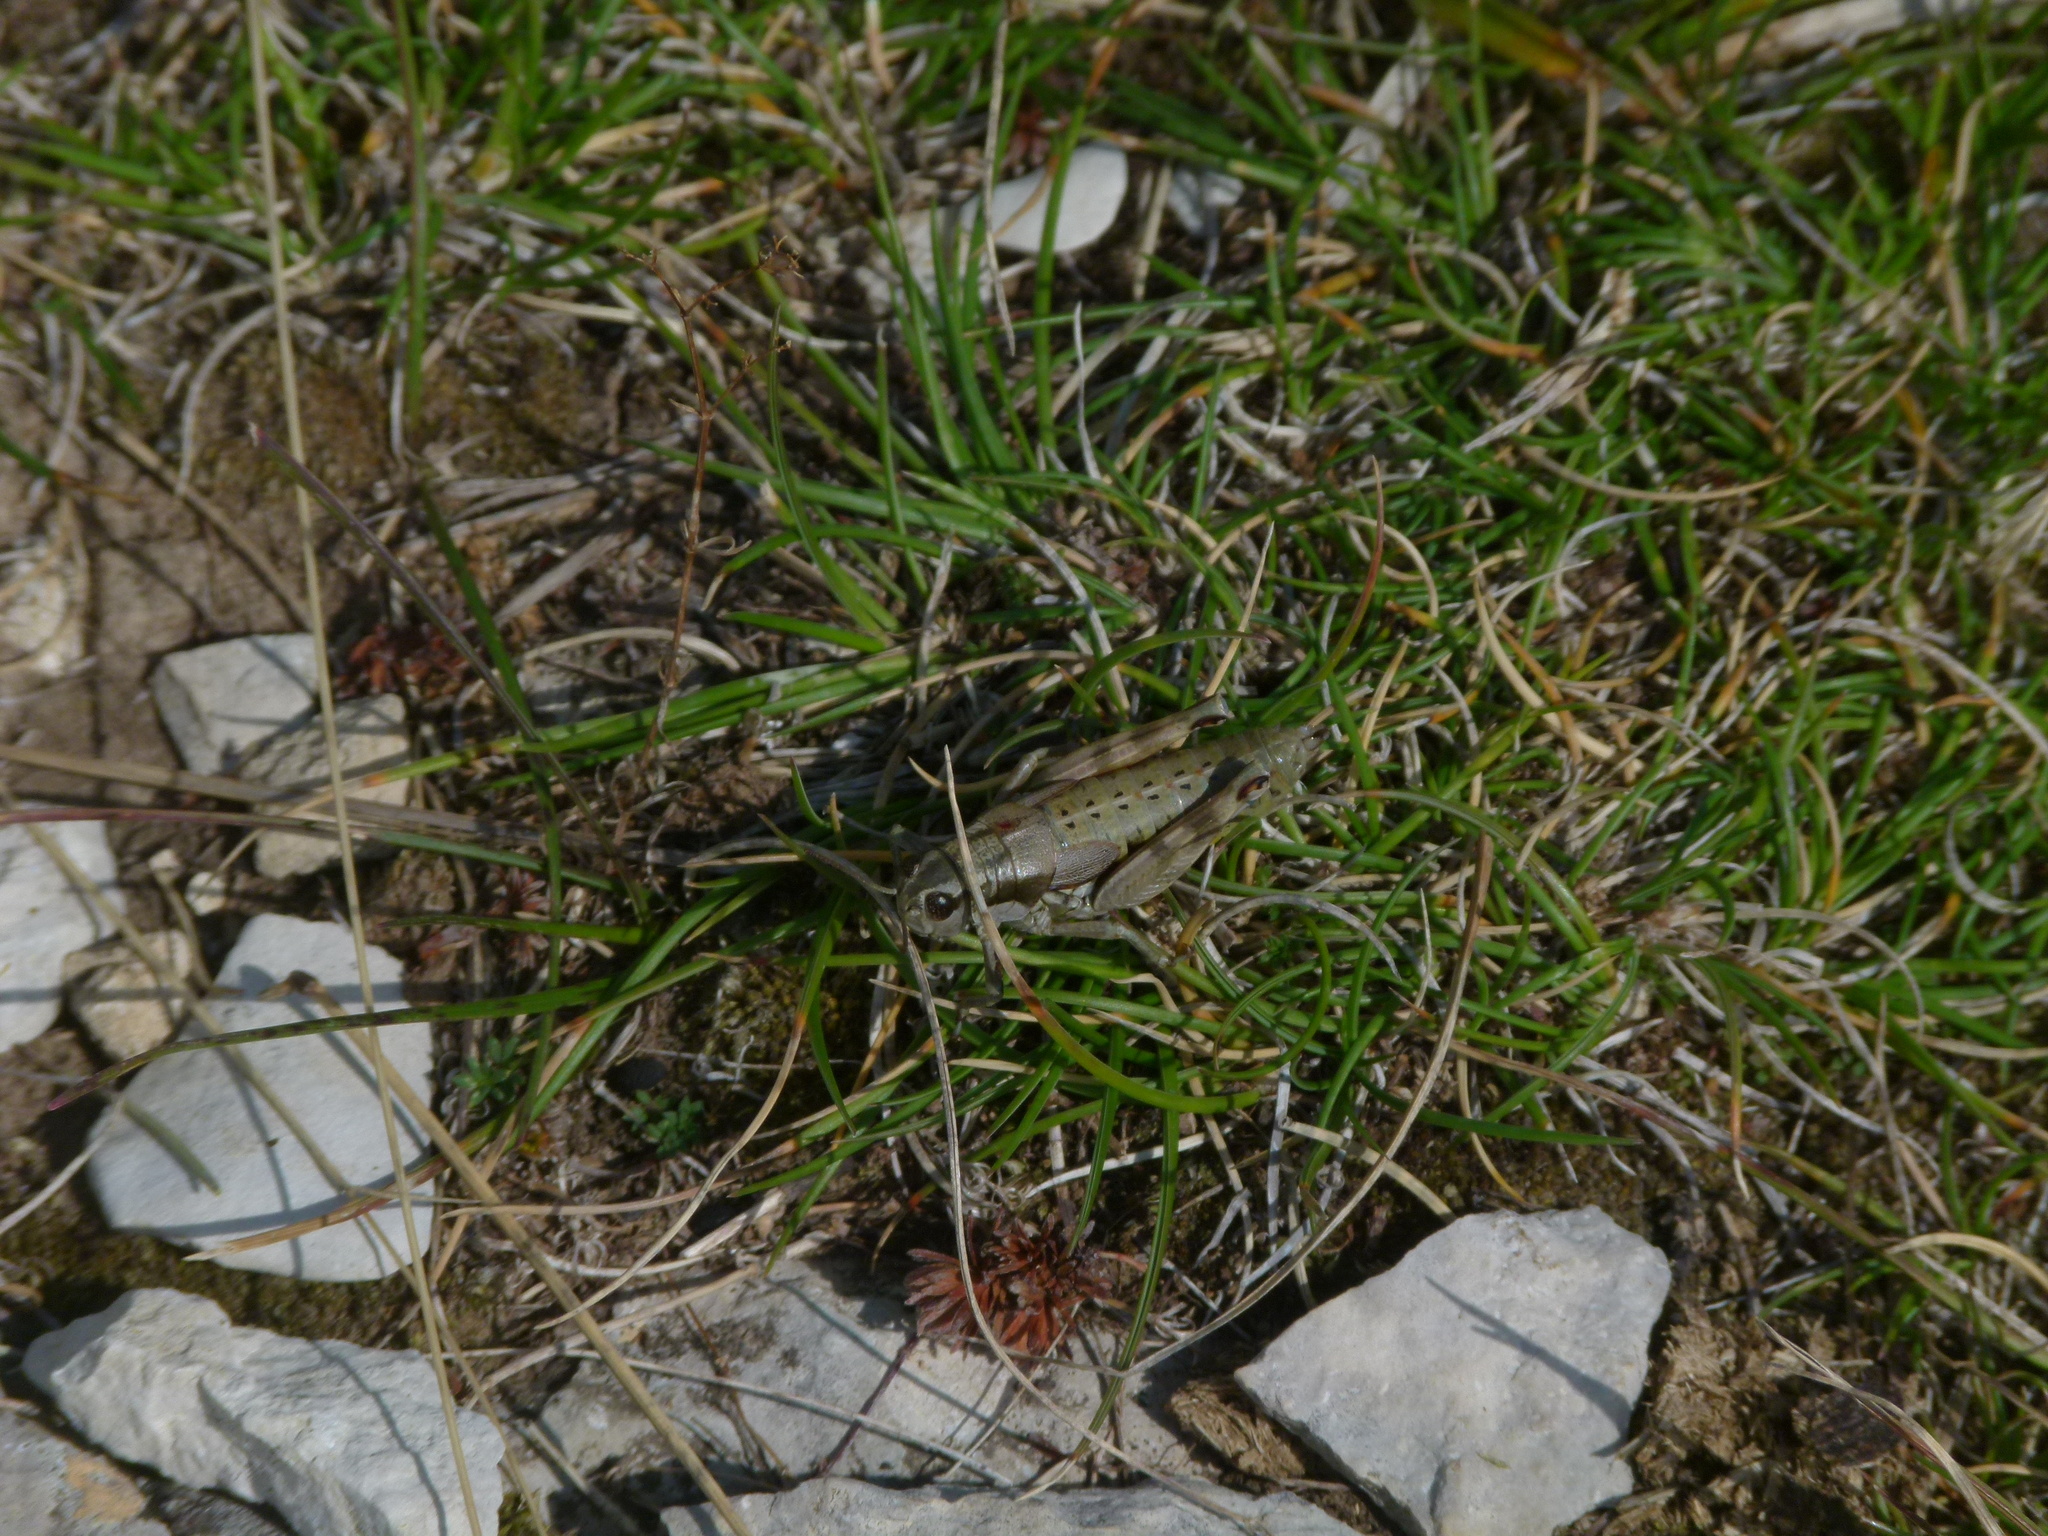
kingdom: Animalia
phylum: Arthropoda
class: Insecta
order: Orthoptera
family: Acrididae
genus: Podisma
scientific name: Podisma amedegnatoae
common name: Ventoux mountain grasshopper
